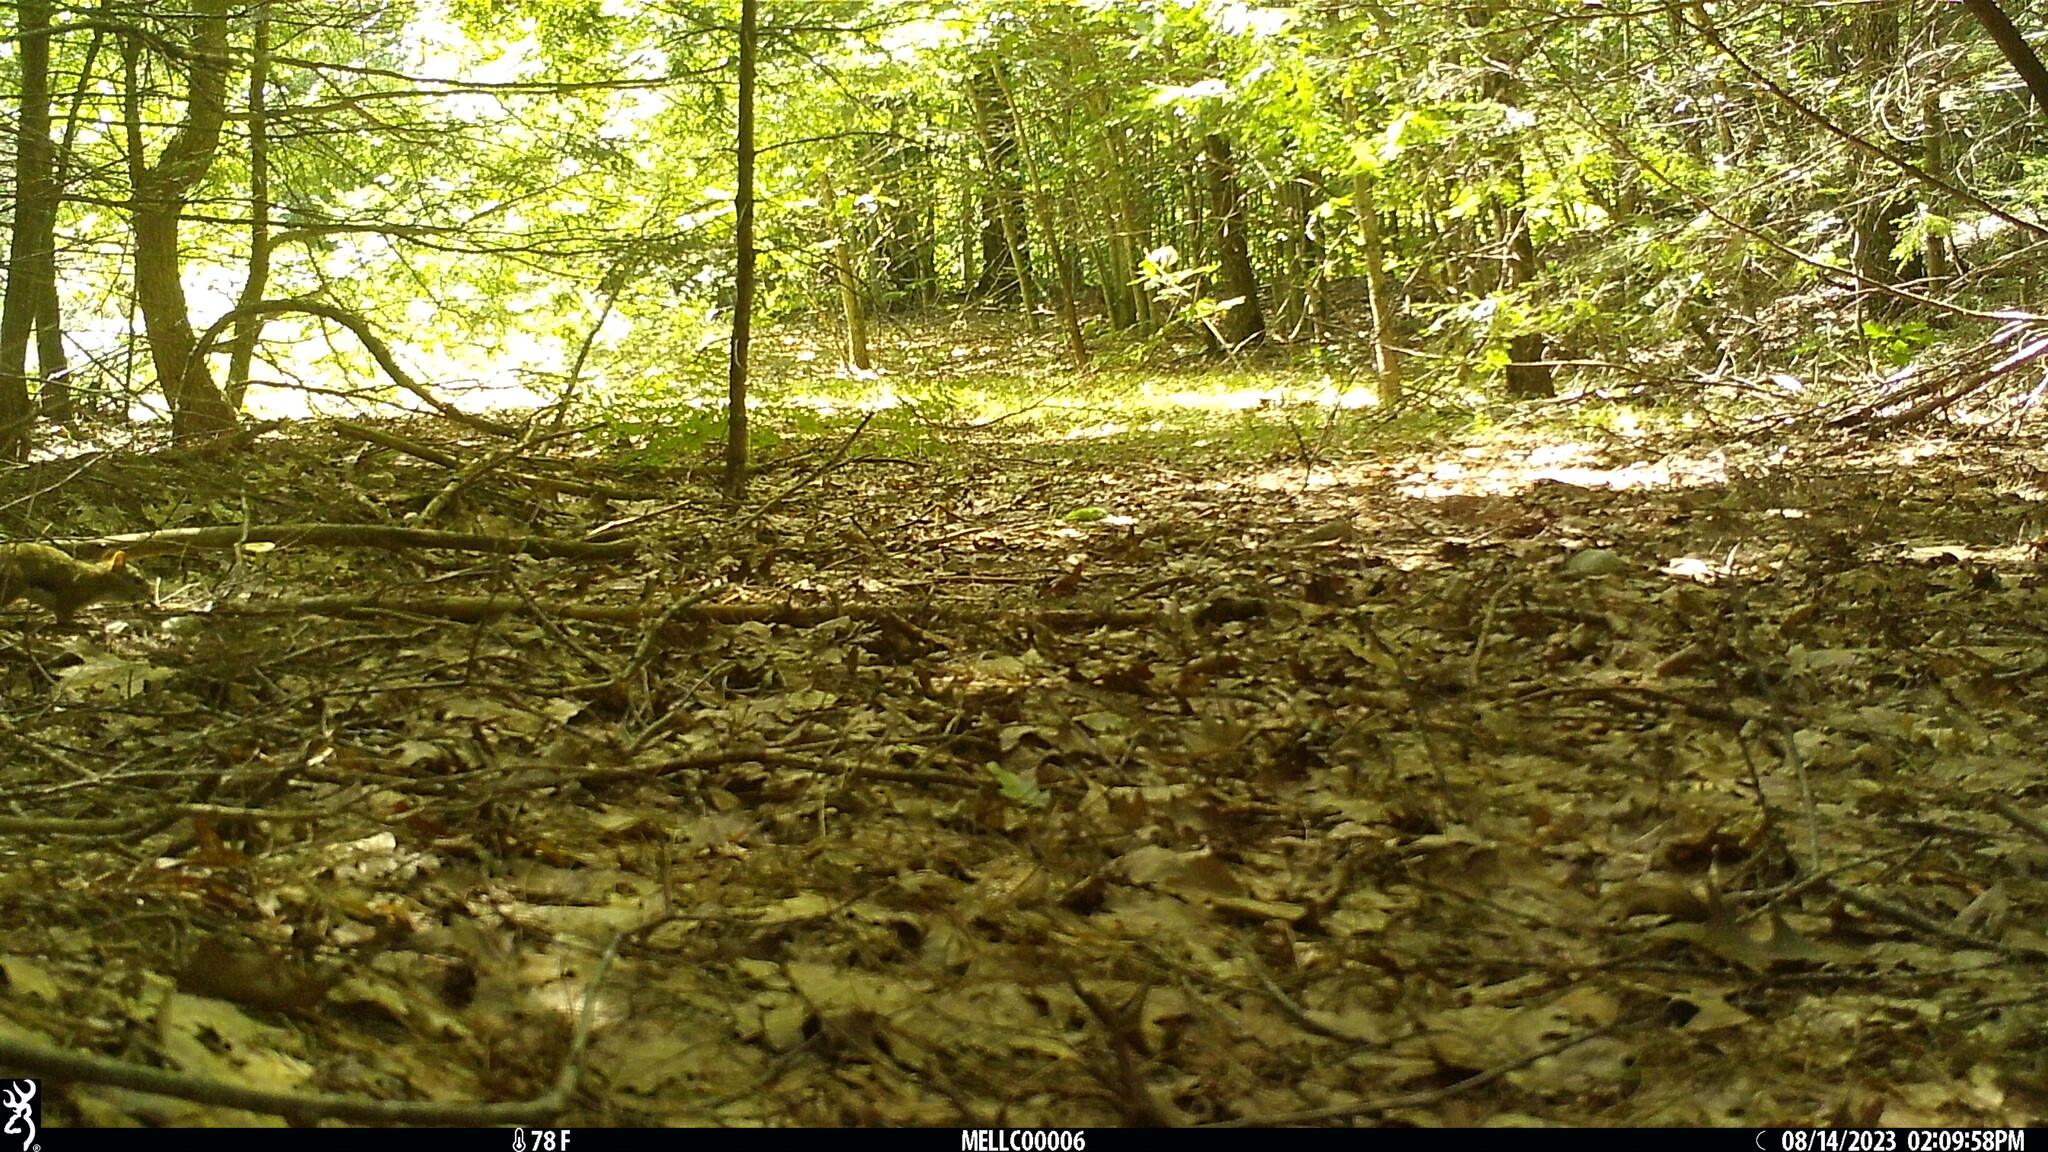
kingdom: Animalia
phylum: Chordata
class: Mammalia
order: Rodentia
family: Sciuridae
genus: Tamiasciurus
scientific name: Tamiasciurus hudsonicus
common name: Red squirrel
